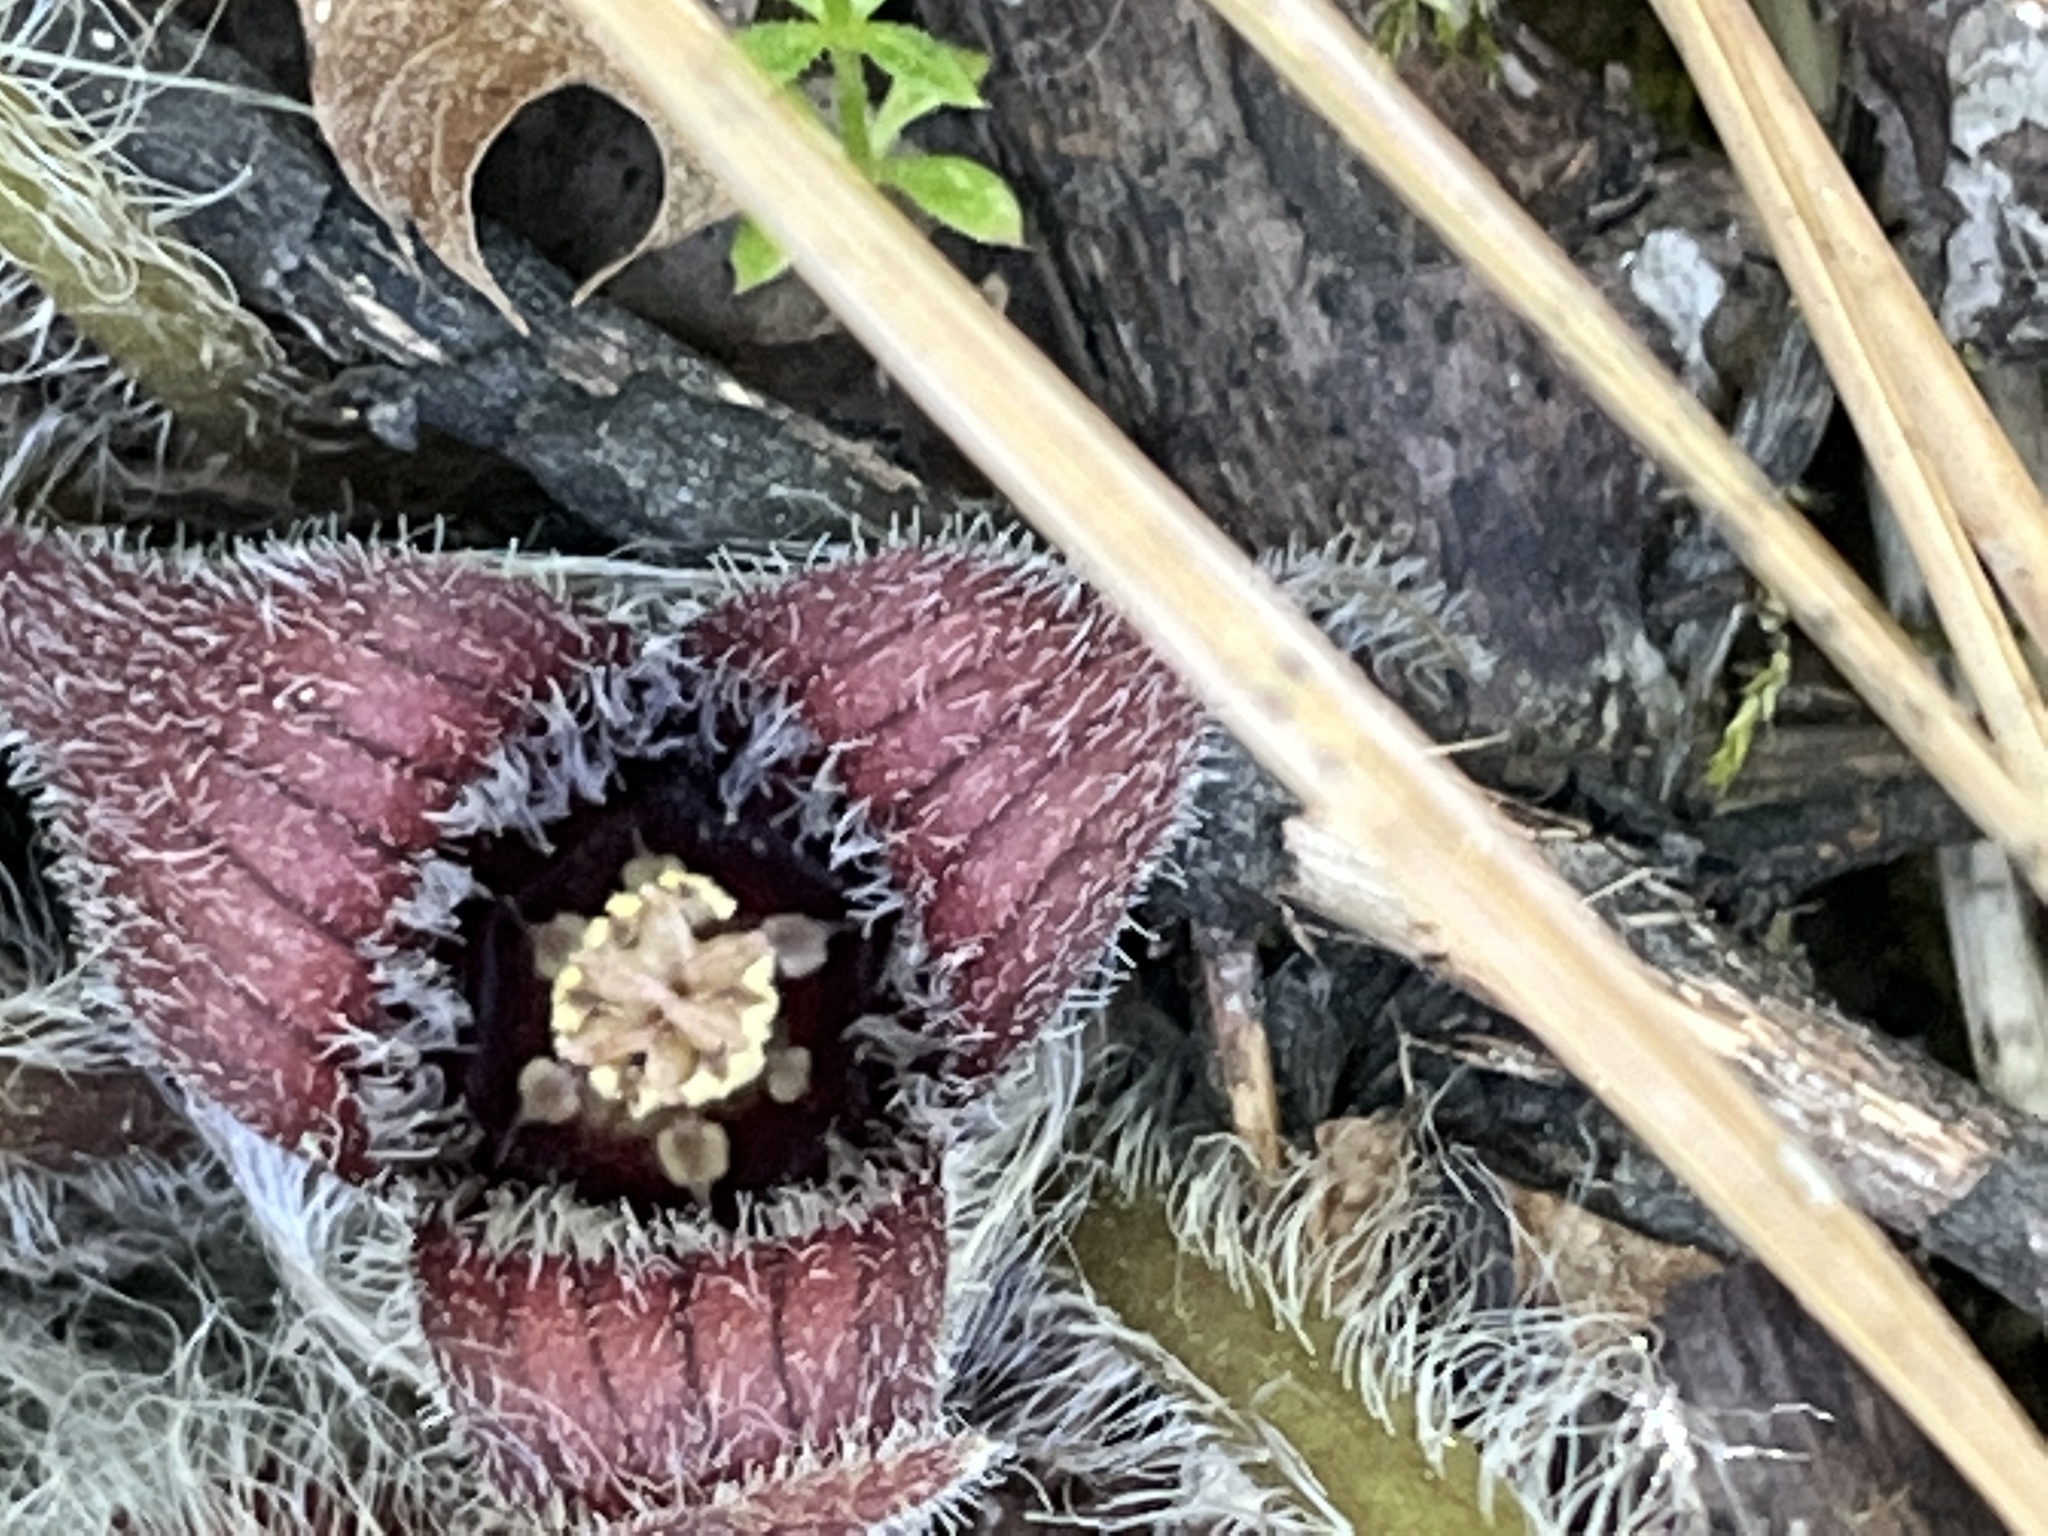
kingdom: Plantae
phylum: Tracheophyta
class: Magnoliopsida
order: Piperales
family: Aristolochiaceae
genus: Asarum
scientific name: Asarum hartwegii
